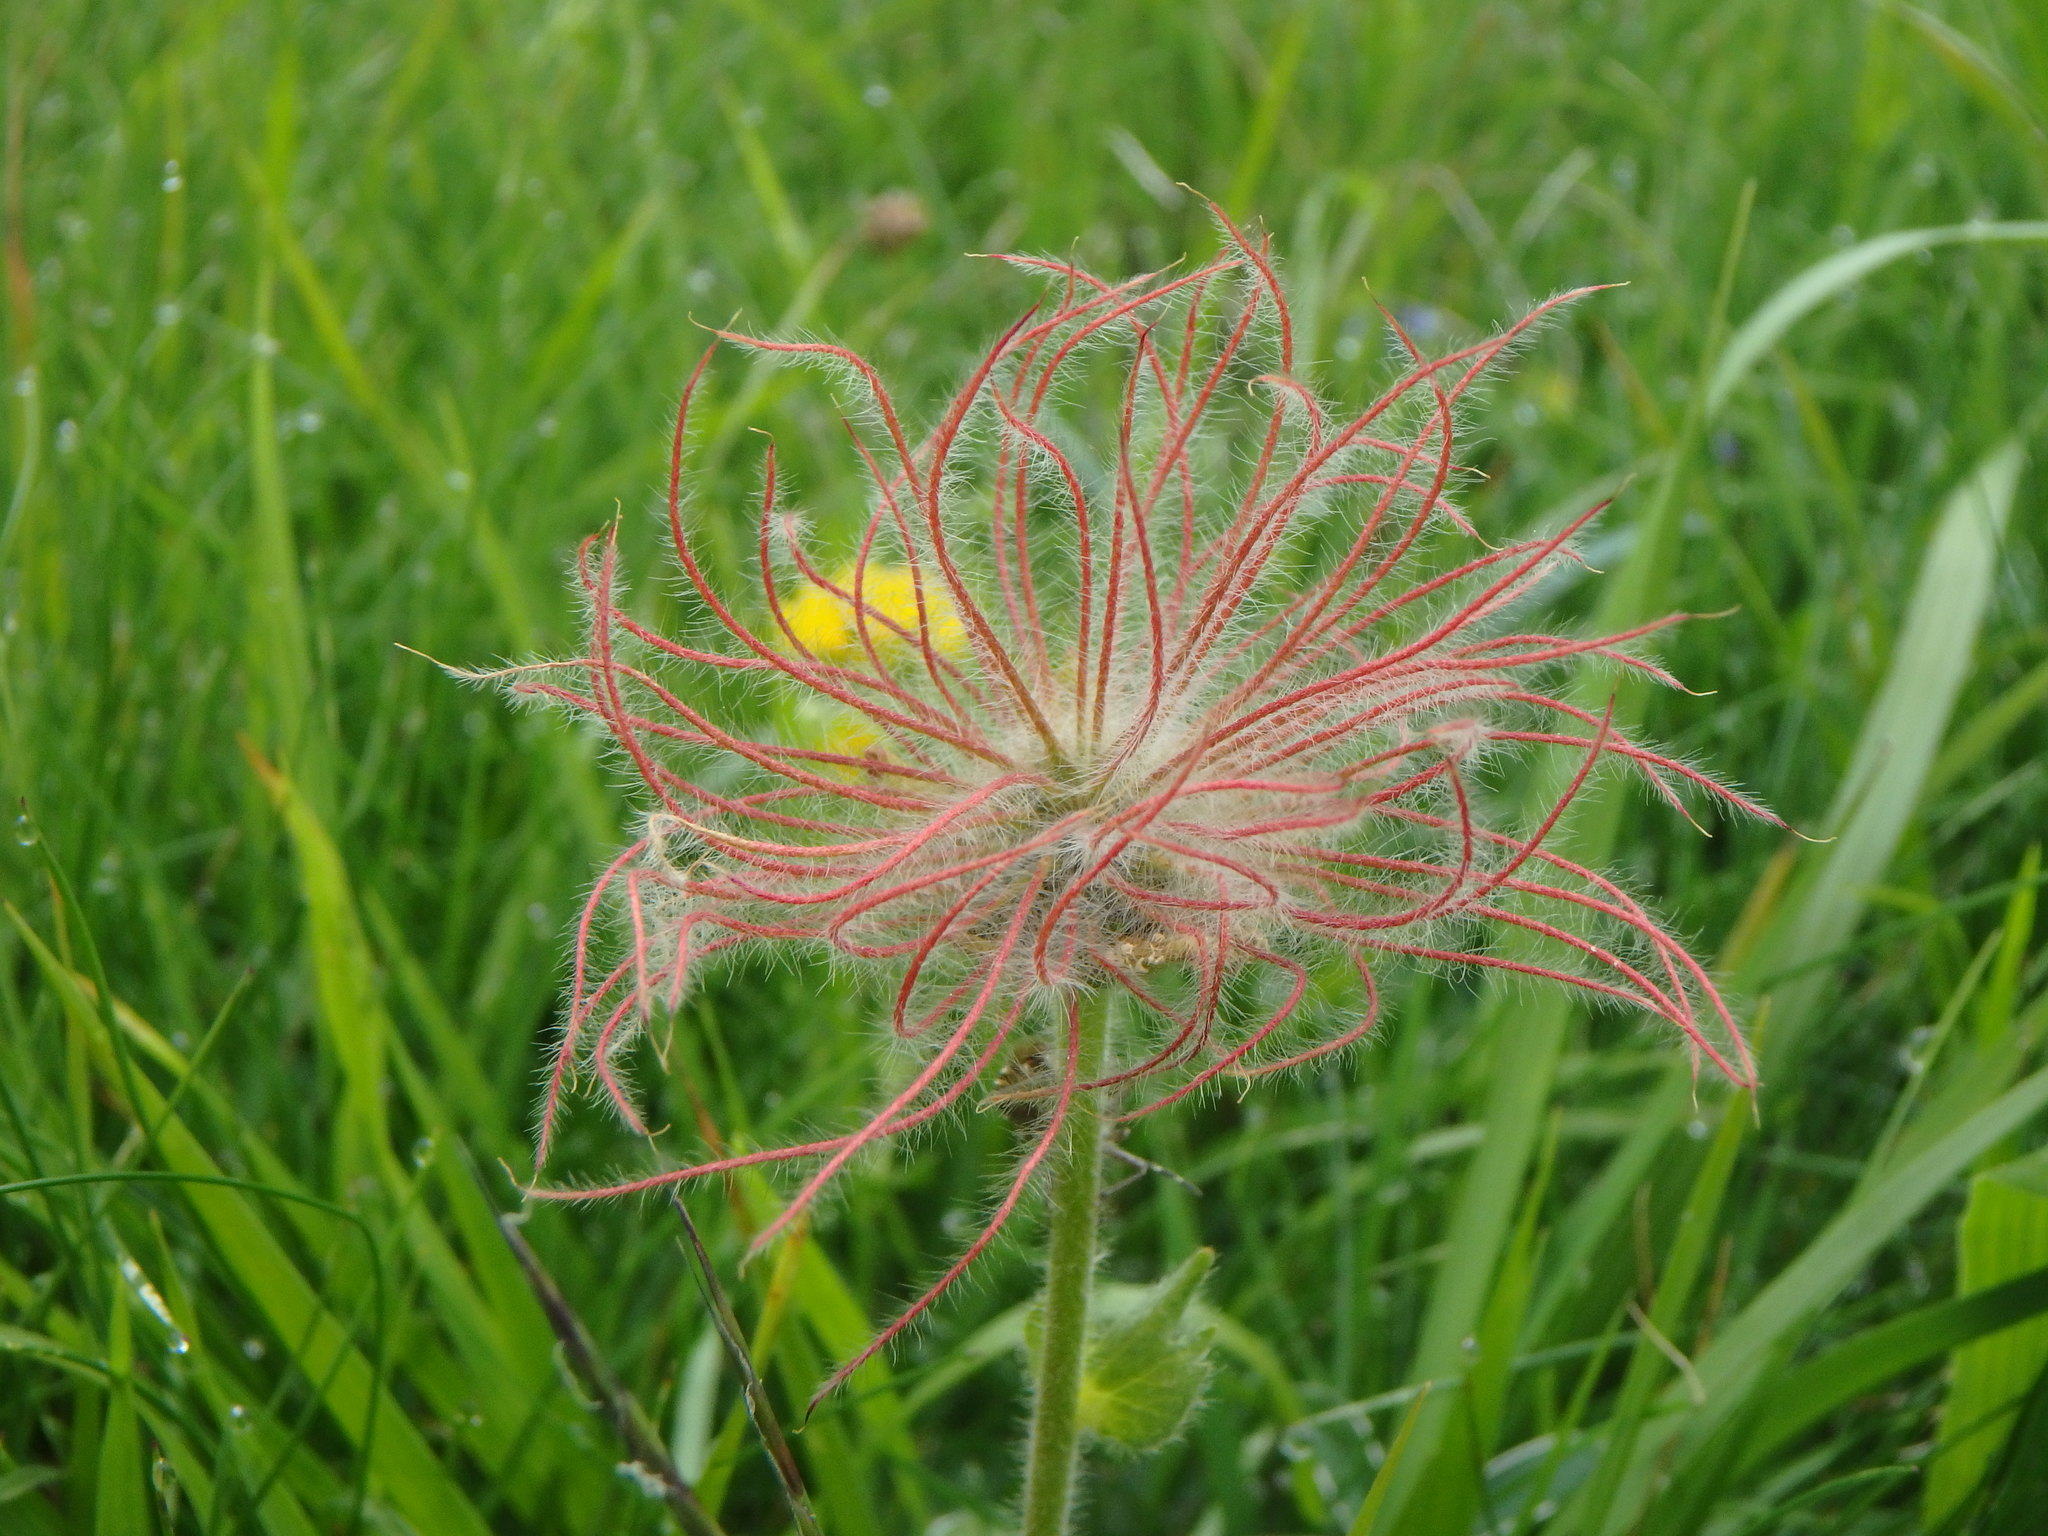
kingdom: Plantae
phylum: Tracheophyta
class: Magnoliopsida
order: Rosales
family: Rosaceae
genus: Geum
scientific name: Geum montanum
